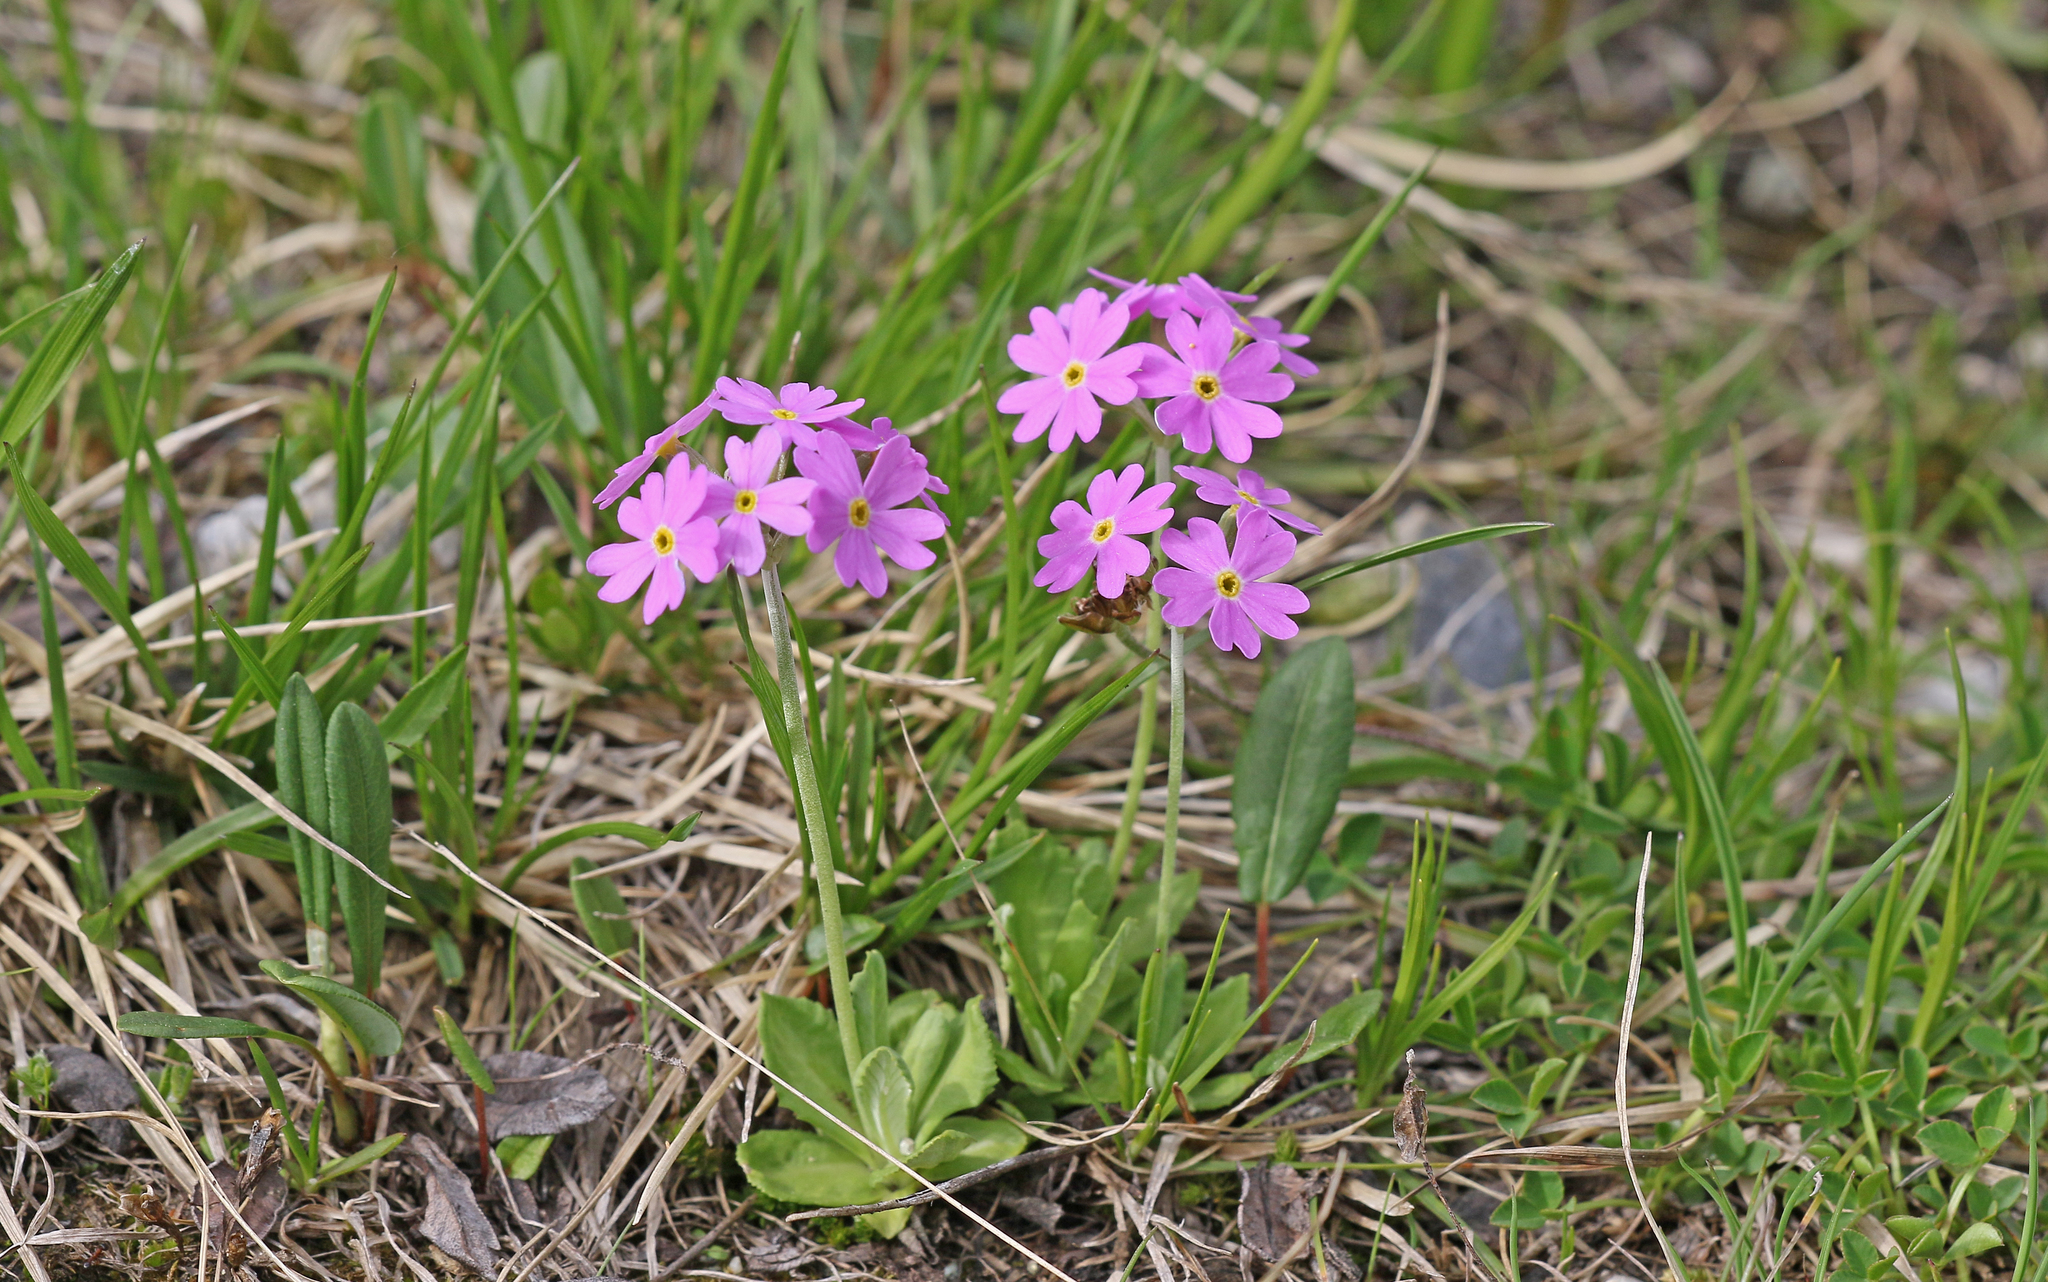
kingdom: Plantae
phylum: Tracheophyta
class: Magnoliopsida
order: Ericales
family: Primulaceae
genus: Primula
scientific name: Primula farinosa
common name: Bird's-eye primrose
